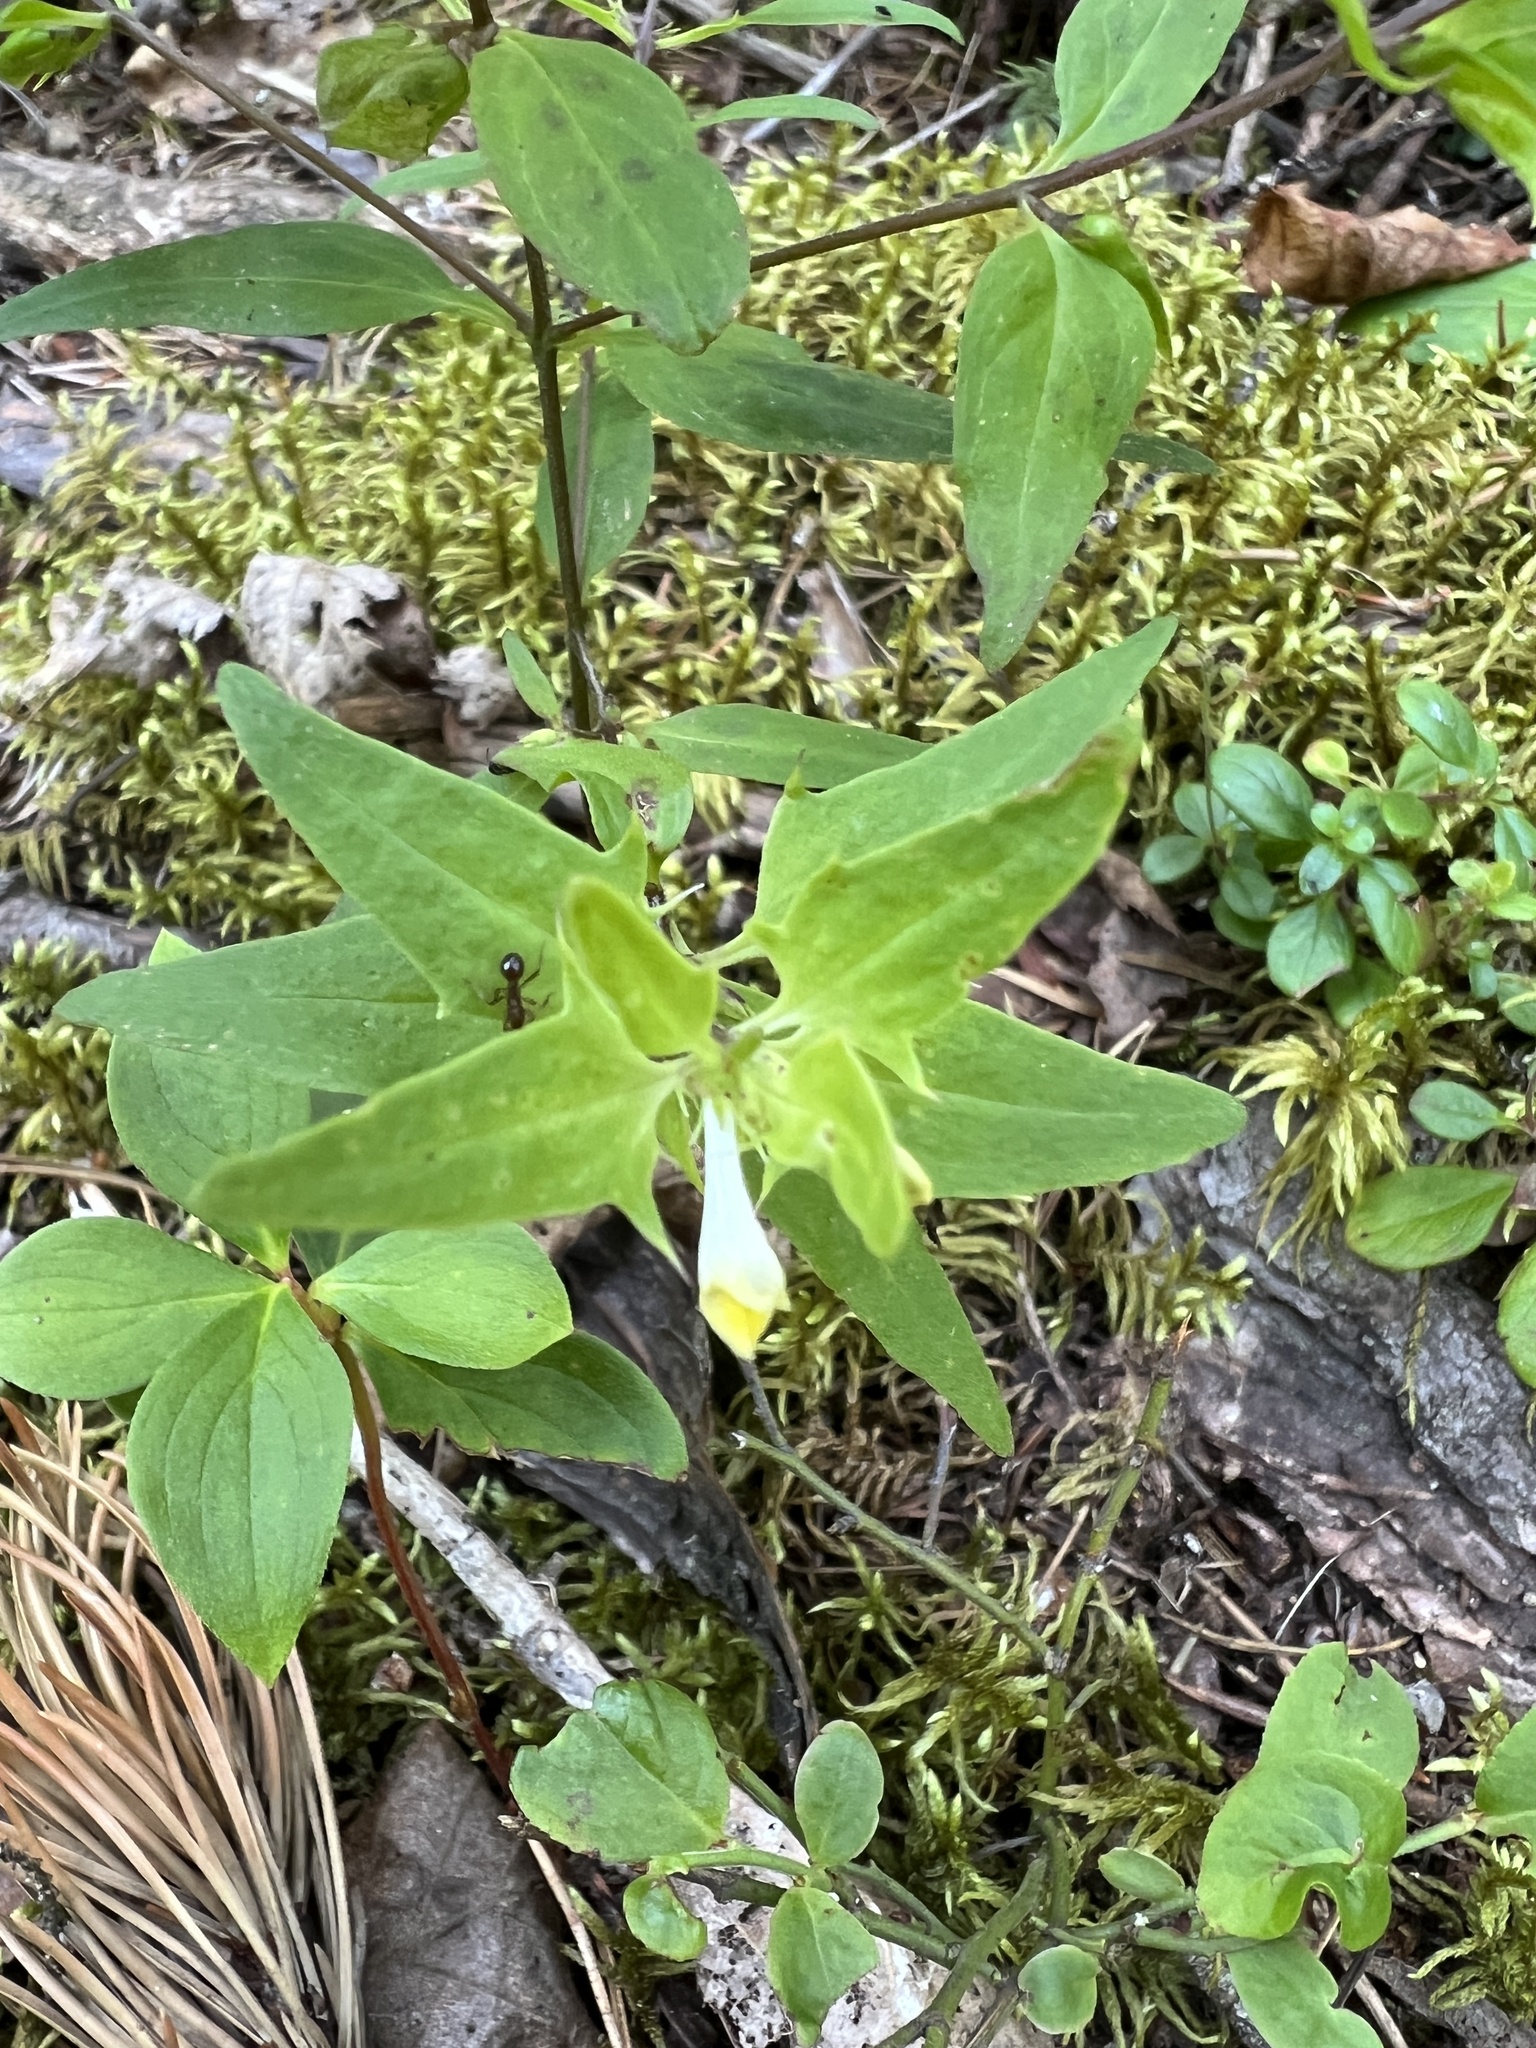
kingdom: Plantae
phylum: Tracheophyta
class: Magnoliopsida
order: Lamiales
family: Orobanchaceae
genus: Melampyrum
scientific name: Melampyrum lineare
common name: American cow-wheat
